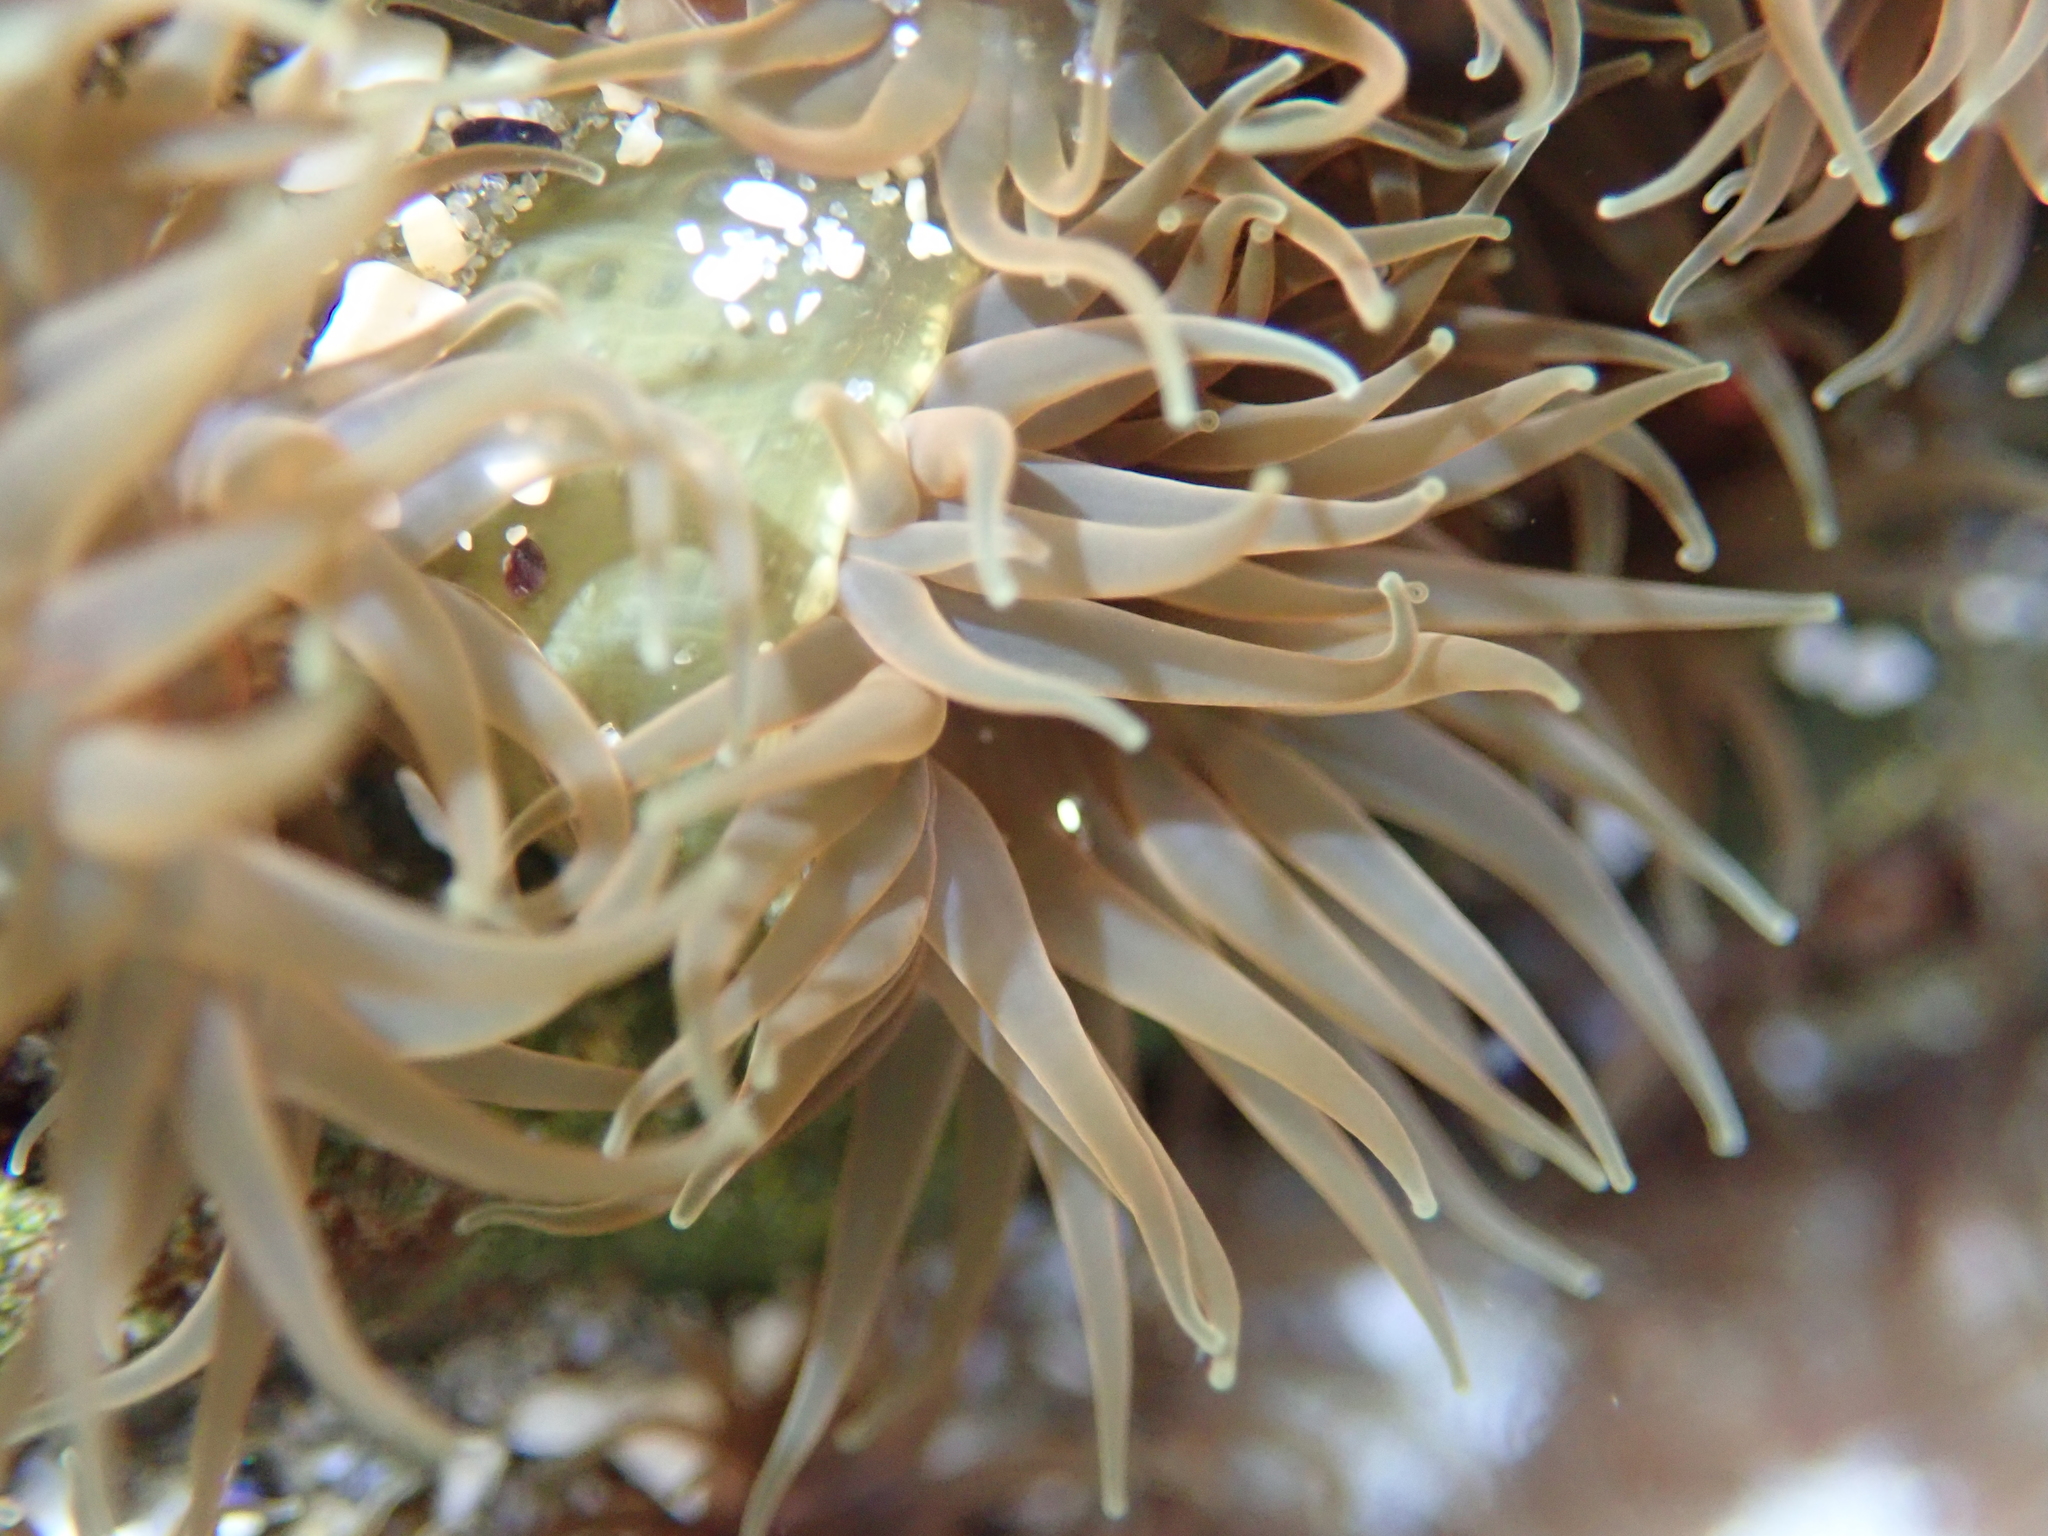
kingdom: Animalia
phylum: Cnidaria
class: Anthozoa
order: Actiniaria
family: Actiniidae
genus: Isactinia
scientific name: Isactinia olivacea
